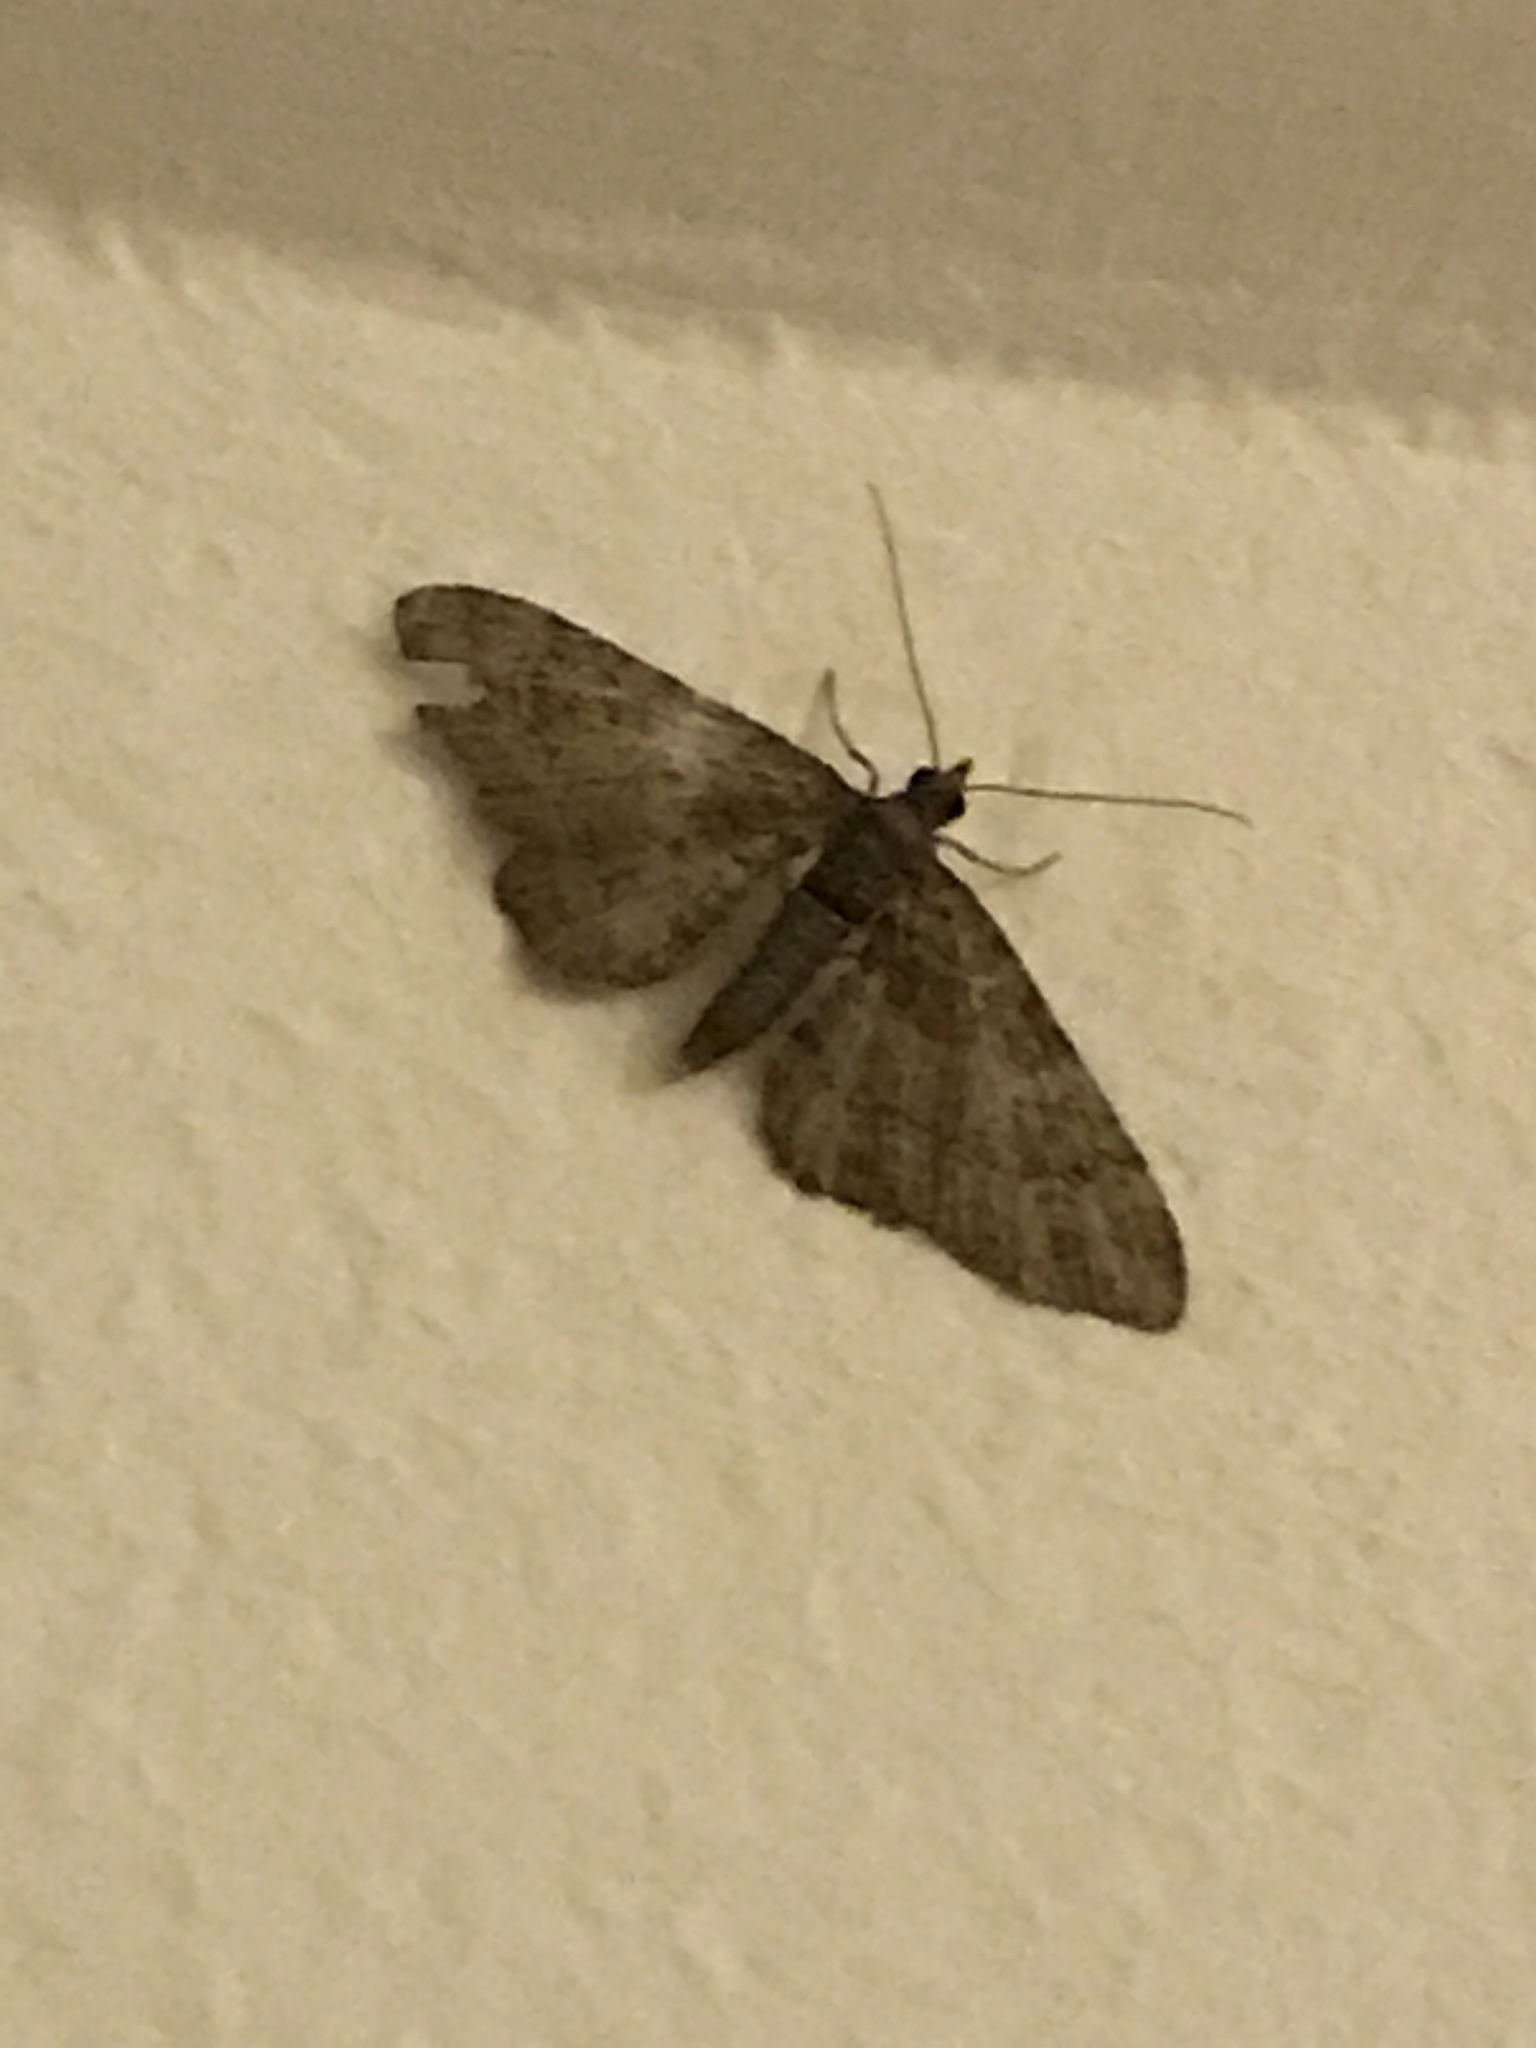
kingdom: Animalia
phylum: Arthropoda
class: Insecta
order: Lepidoptera
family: Geometridae
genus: Gymnoscelis
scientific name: Gymnoscelis rufifasciata
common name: Double-striped pug
